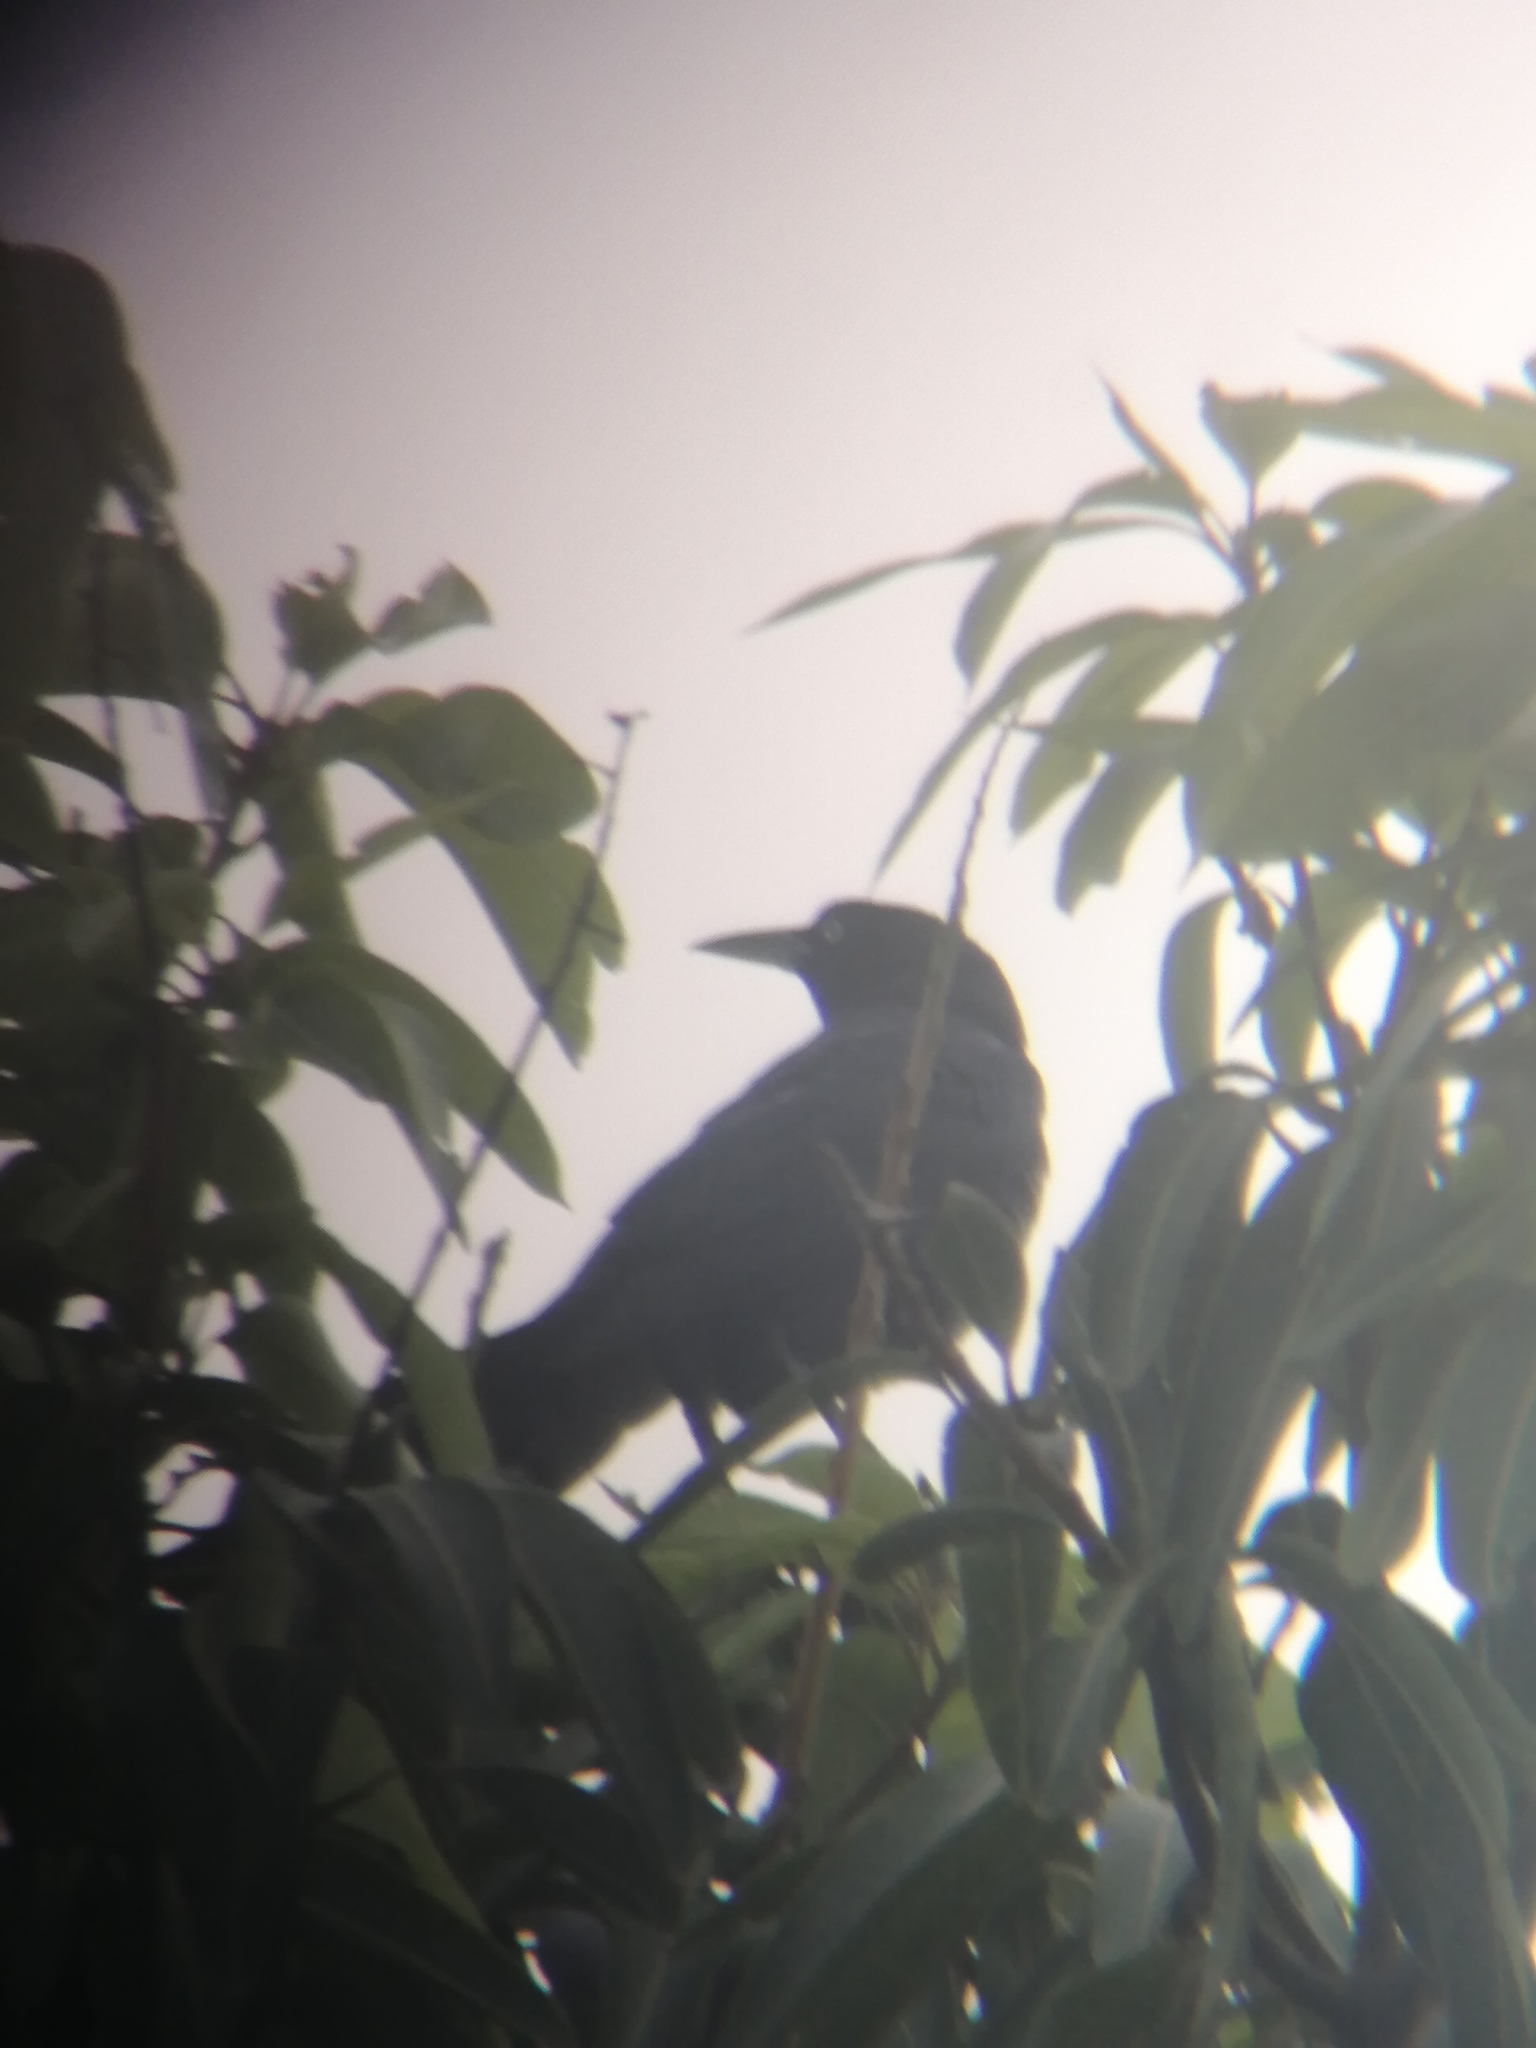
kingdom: Animalia
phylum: Chordata
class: Aves
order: Passeriformes
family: Icteridae
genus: Quiscalus
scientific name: Quiscalus mexicanus
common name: Great-tailed grackle
